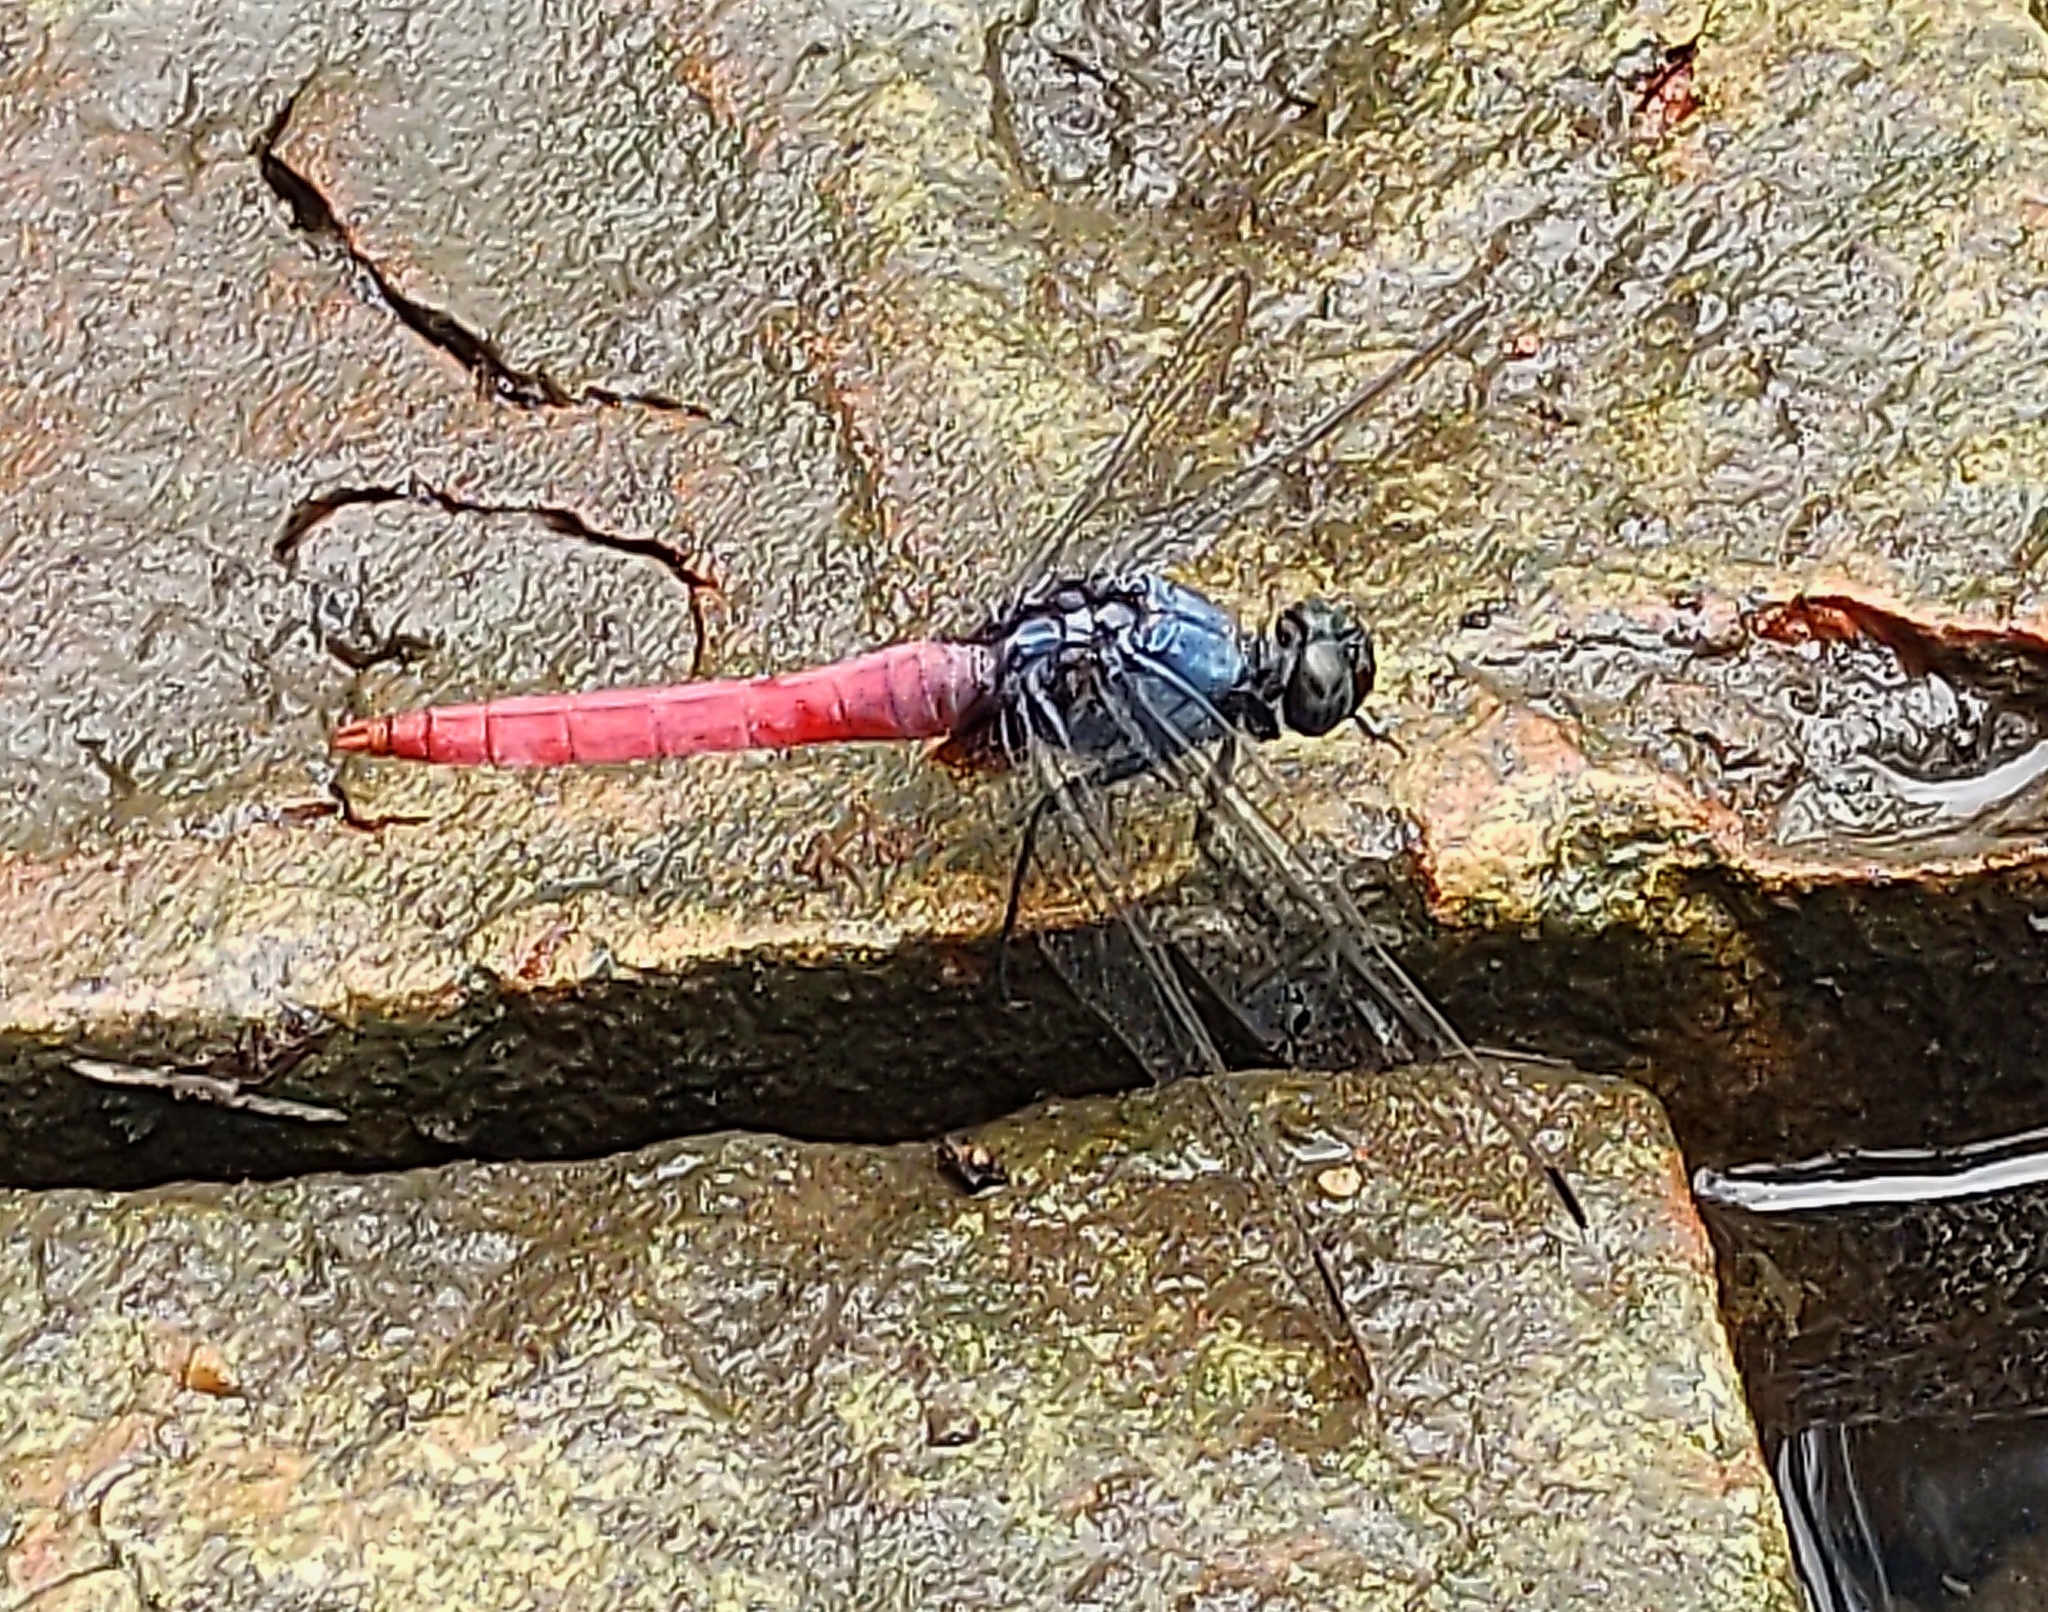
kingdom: Animalia
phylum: Arthropoda
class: Insecta
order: Odonata
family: Libellulidae
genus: Orthetrum
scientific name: Orthetrum pruinosum
